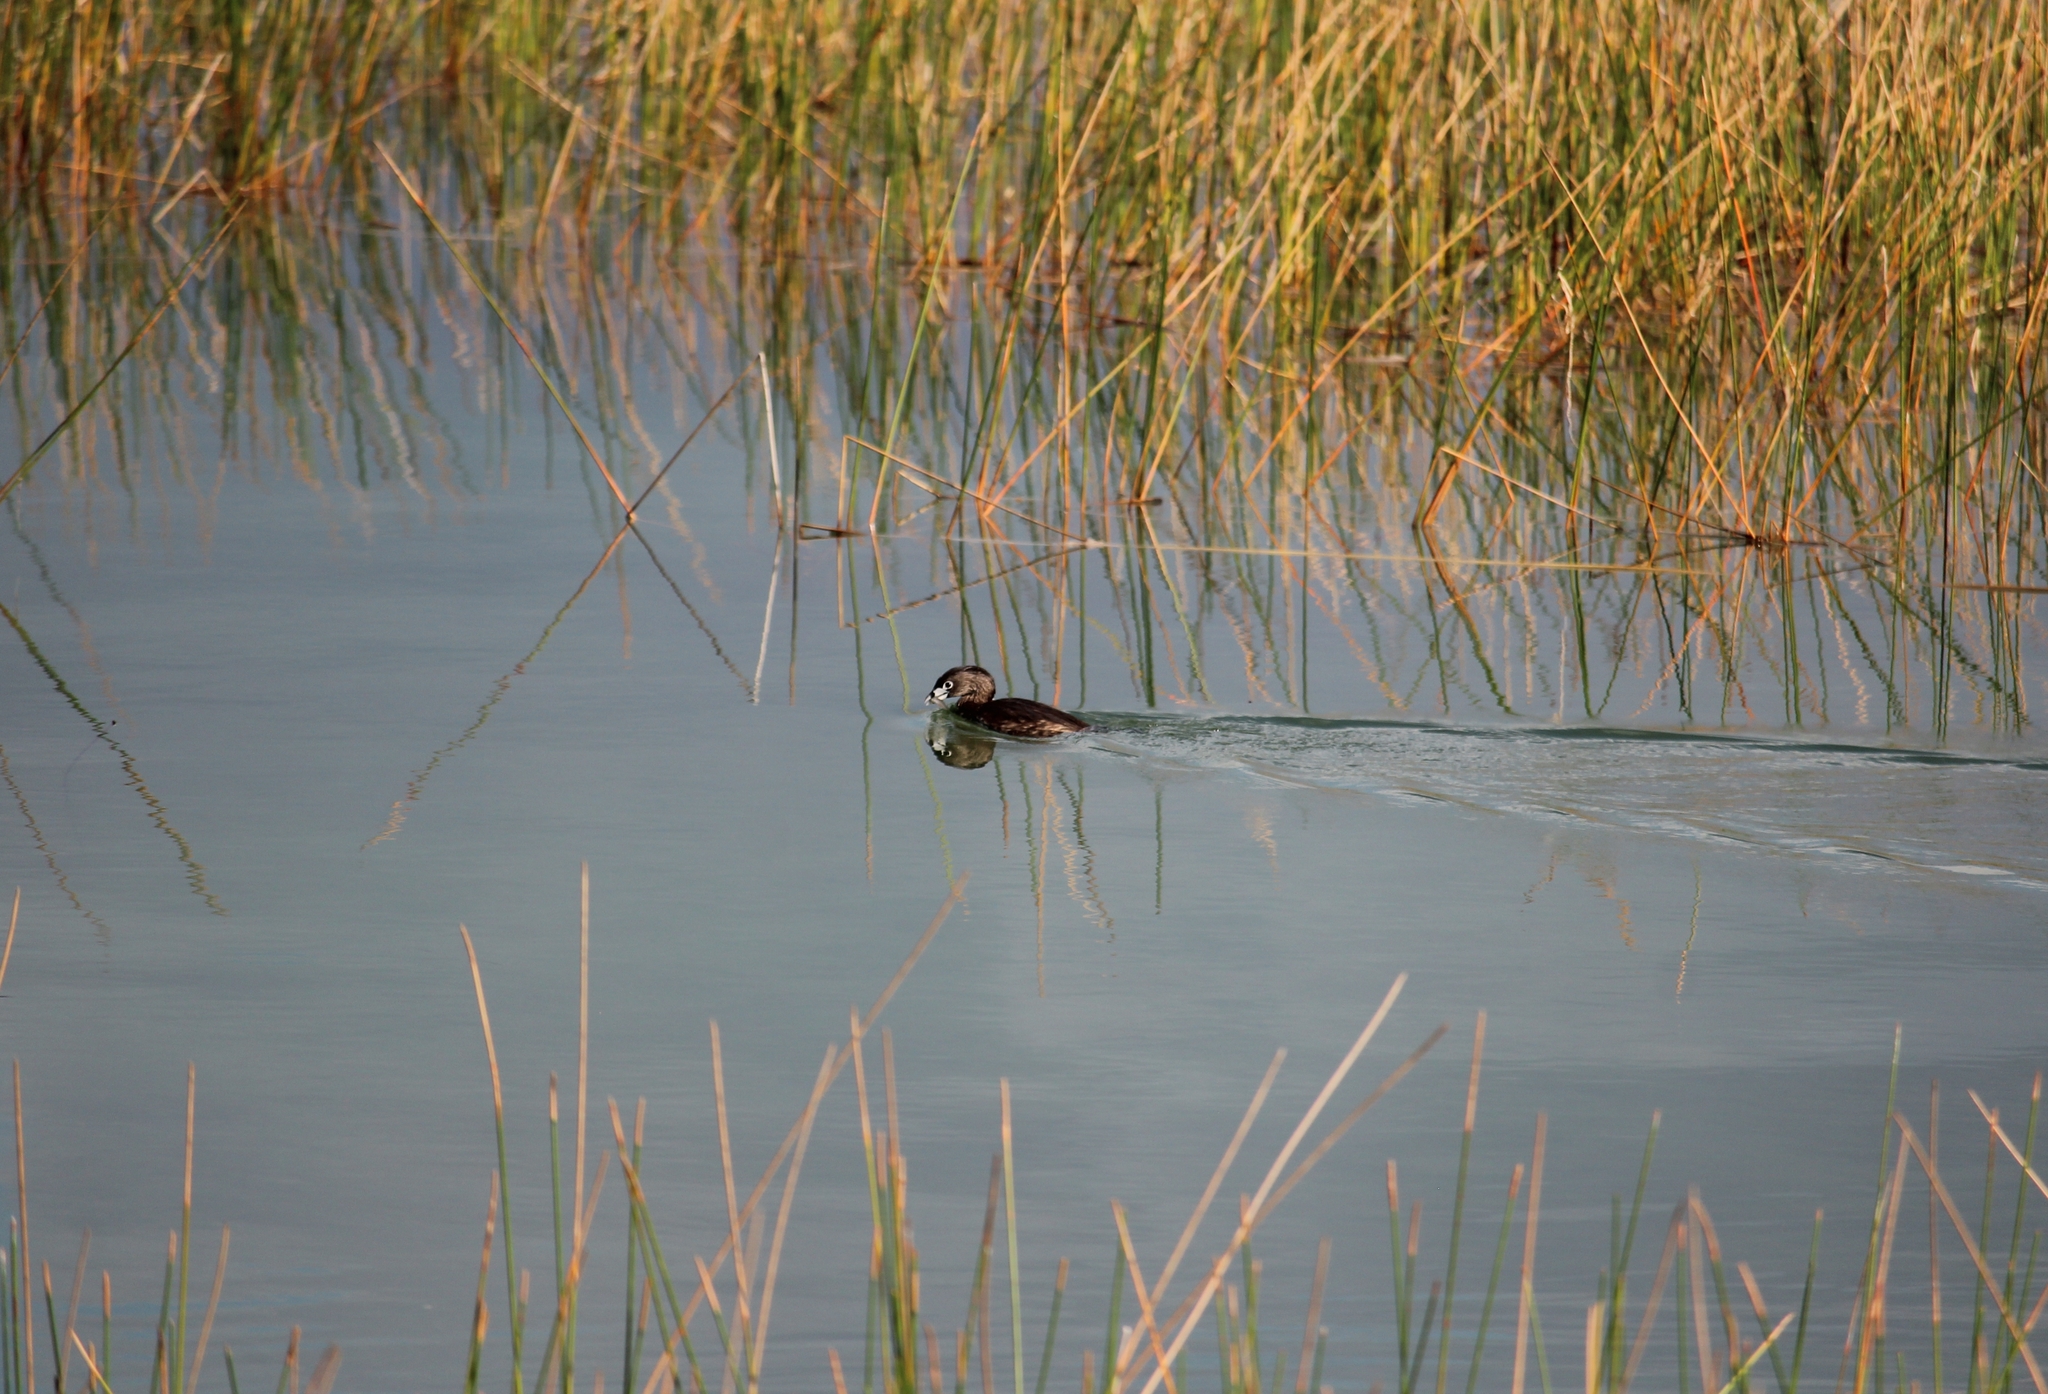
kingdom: Animalia
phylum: Chordata
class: Aves
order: Podicipediformes
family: Podicipedidae
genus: Podilymbus
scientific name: Podilymbus podiceps
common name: Pied-billed grebe
